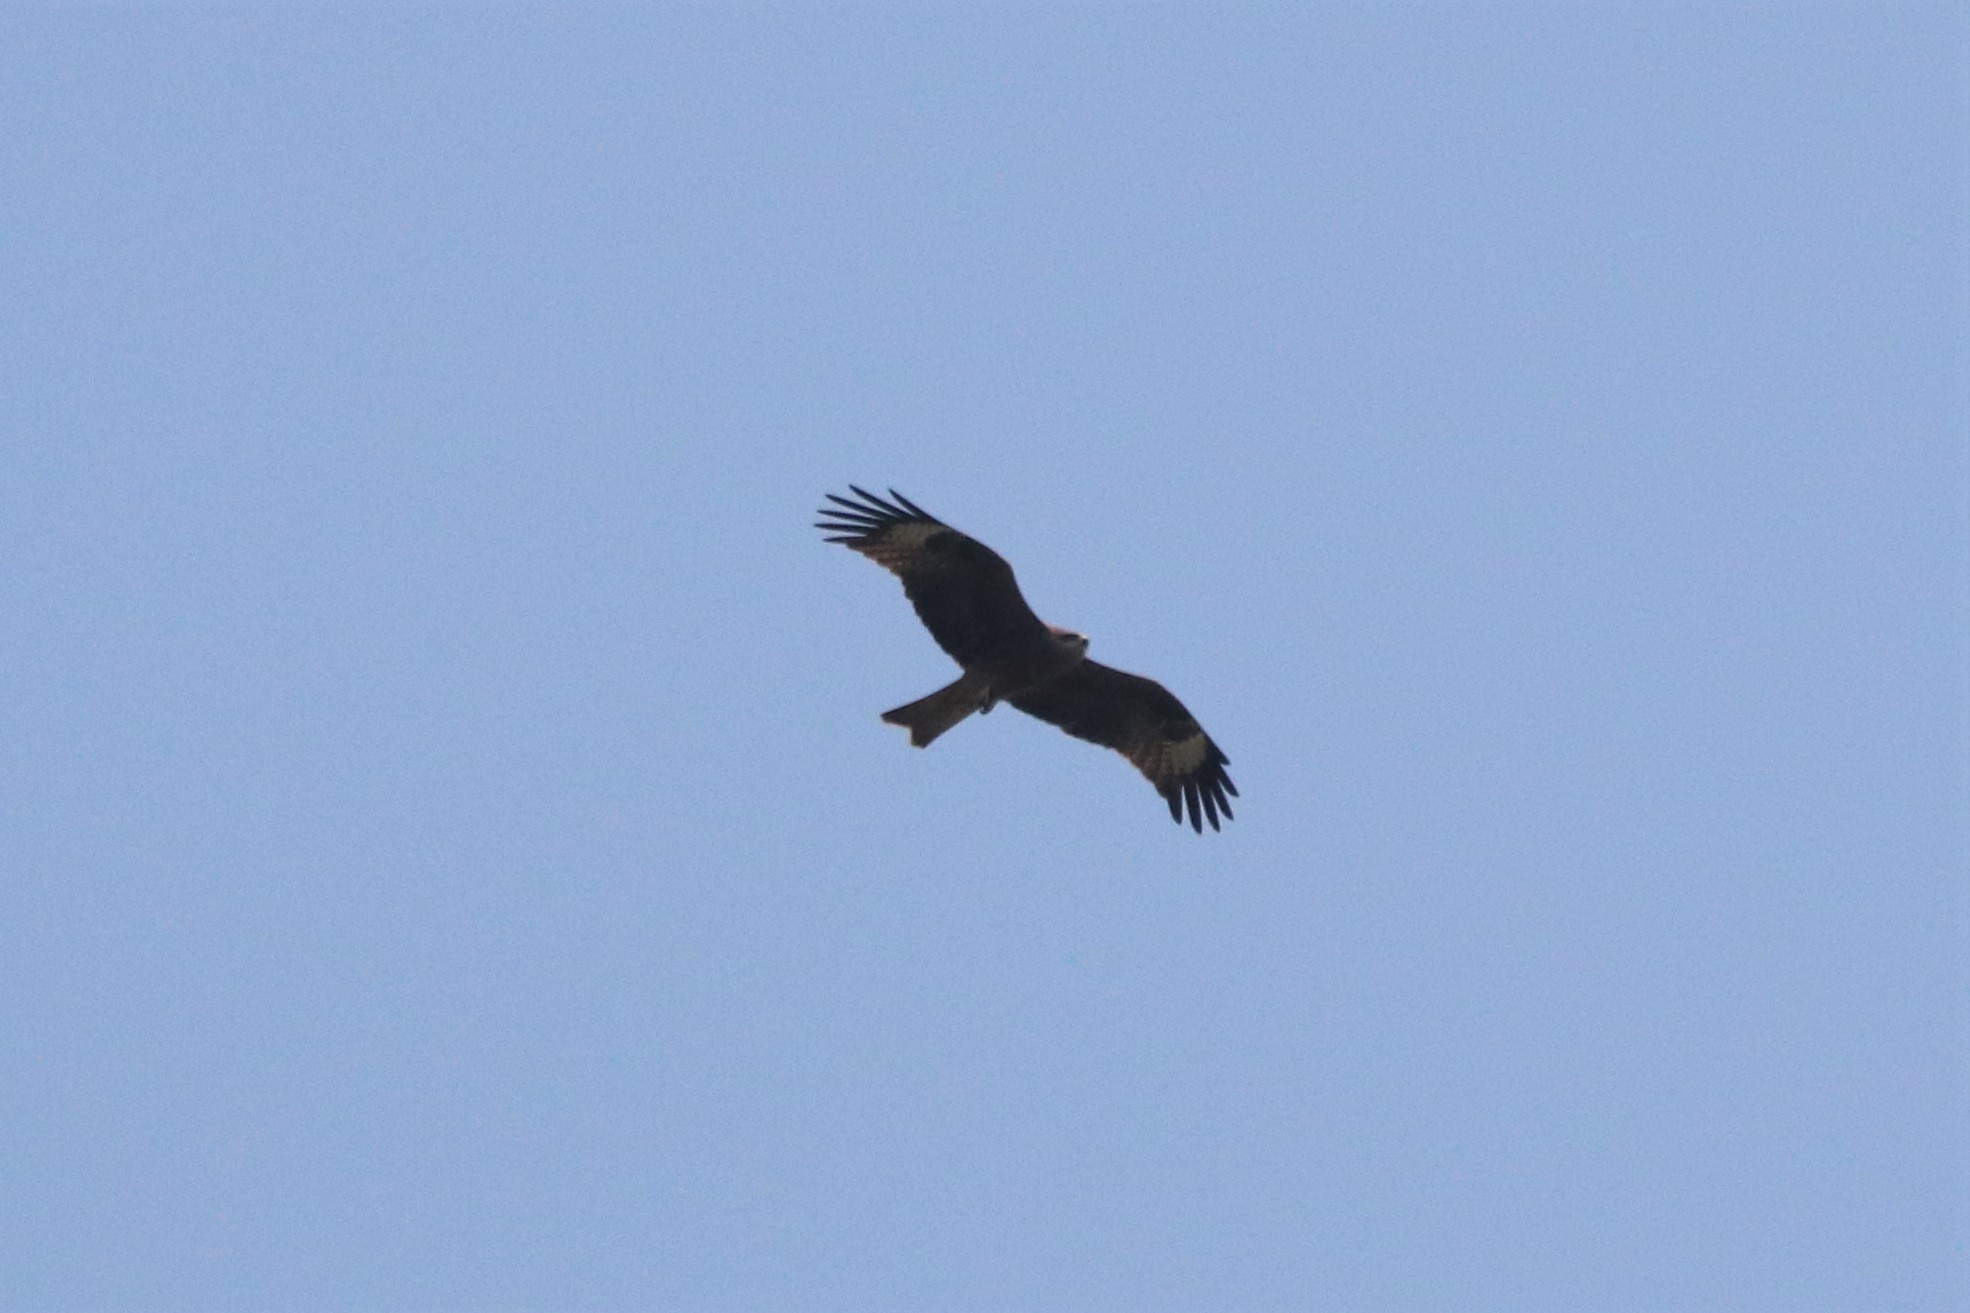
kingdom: Animalia
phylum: Chordata
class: Aves
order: Accipitriformes
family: Accipitridae
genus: Milvus
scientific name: Milvus migrans
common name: Black kite
